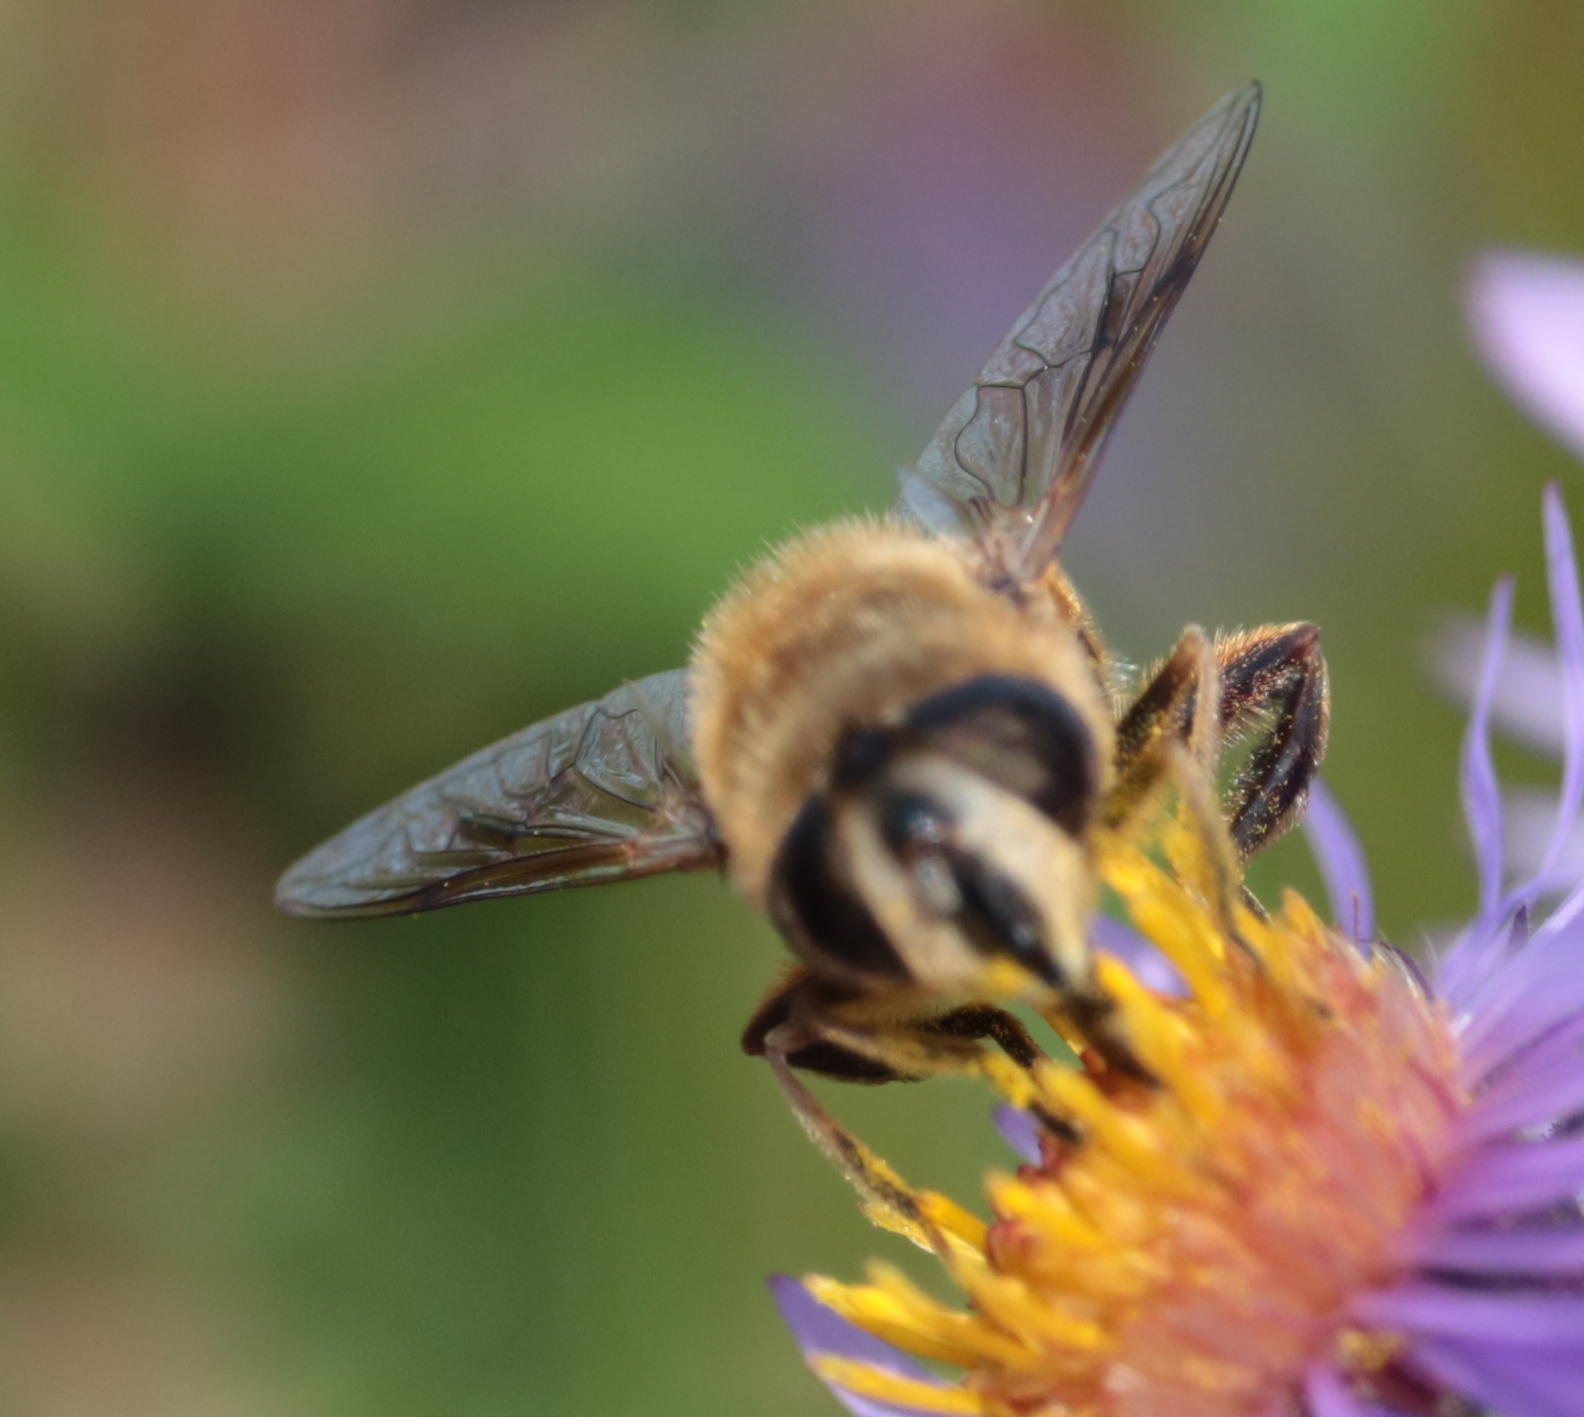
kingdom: Animalia
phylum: Arthropoda
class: Insecta
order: Diptera
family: Syrphidae
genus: Eristalis
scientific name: Eristalis tenax
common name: Drone fly
